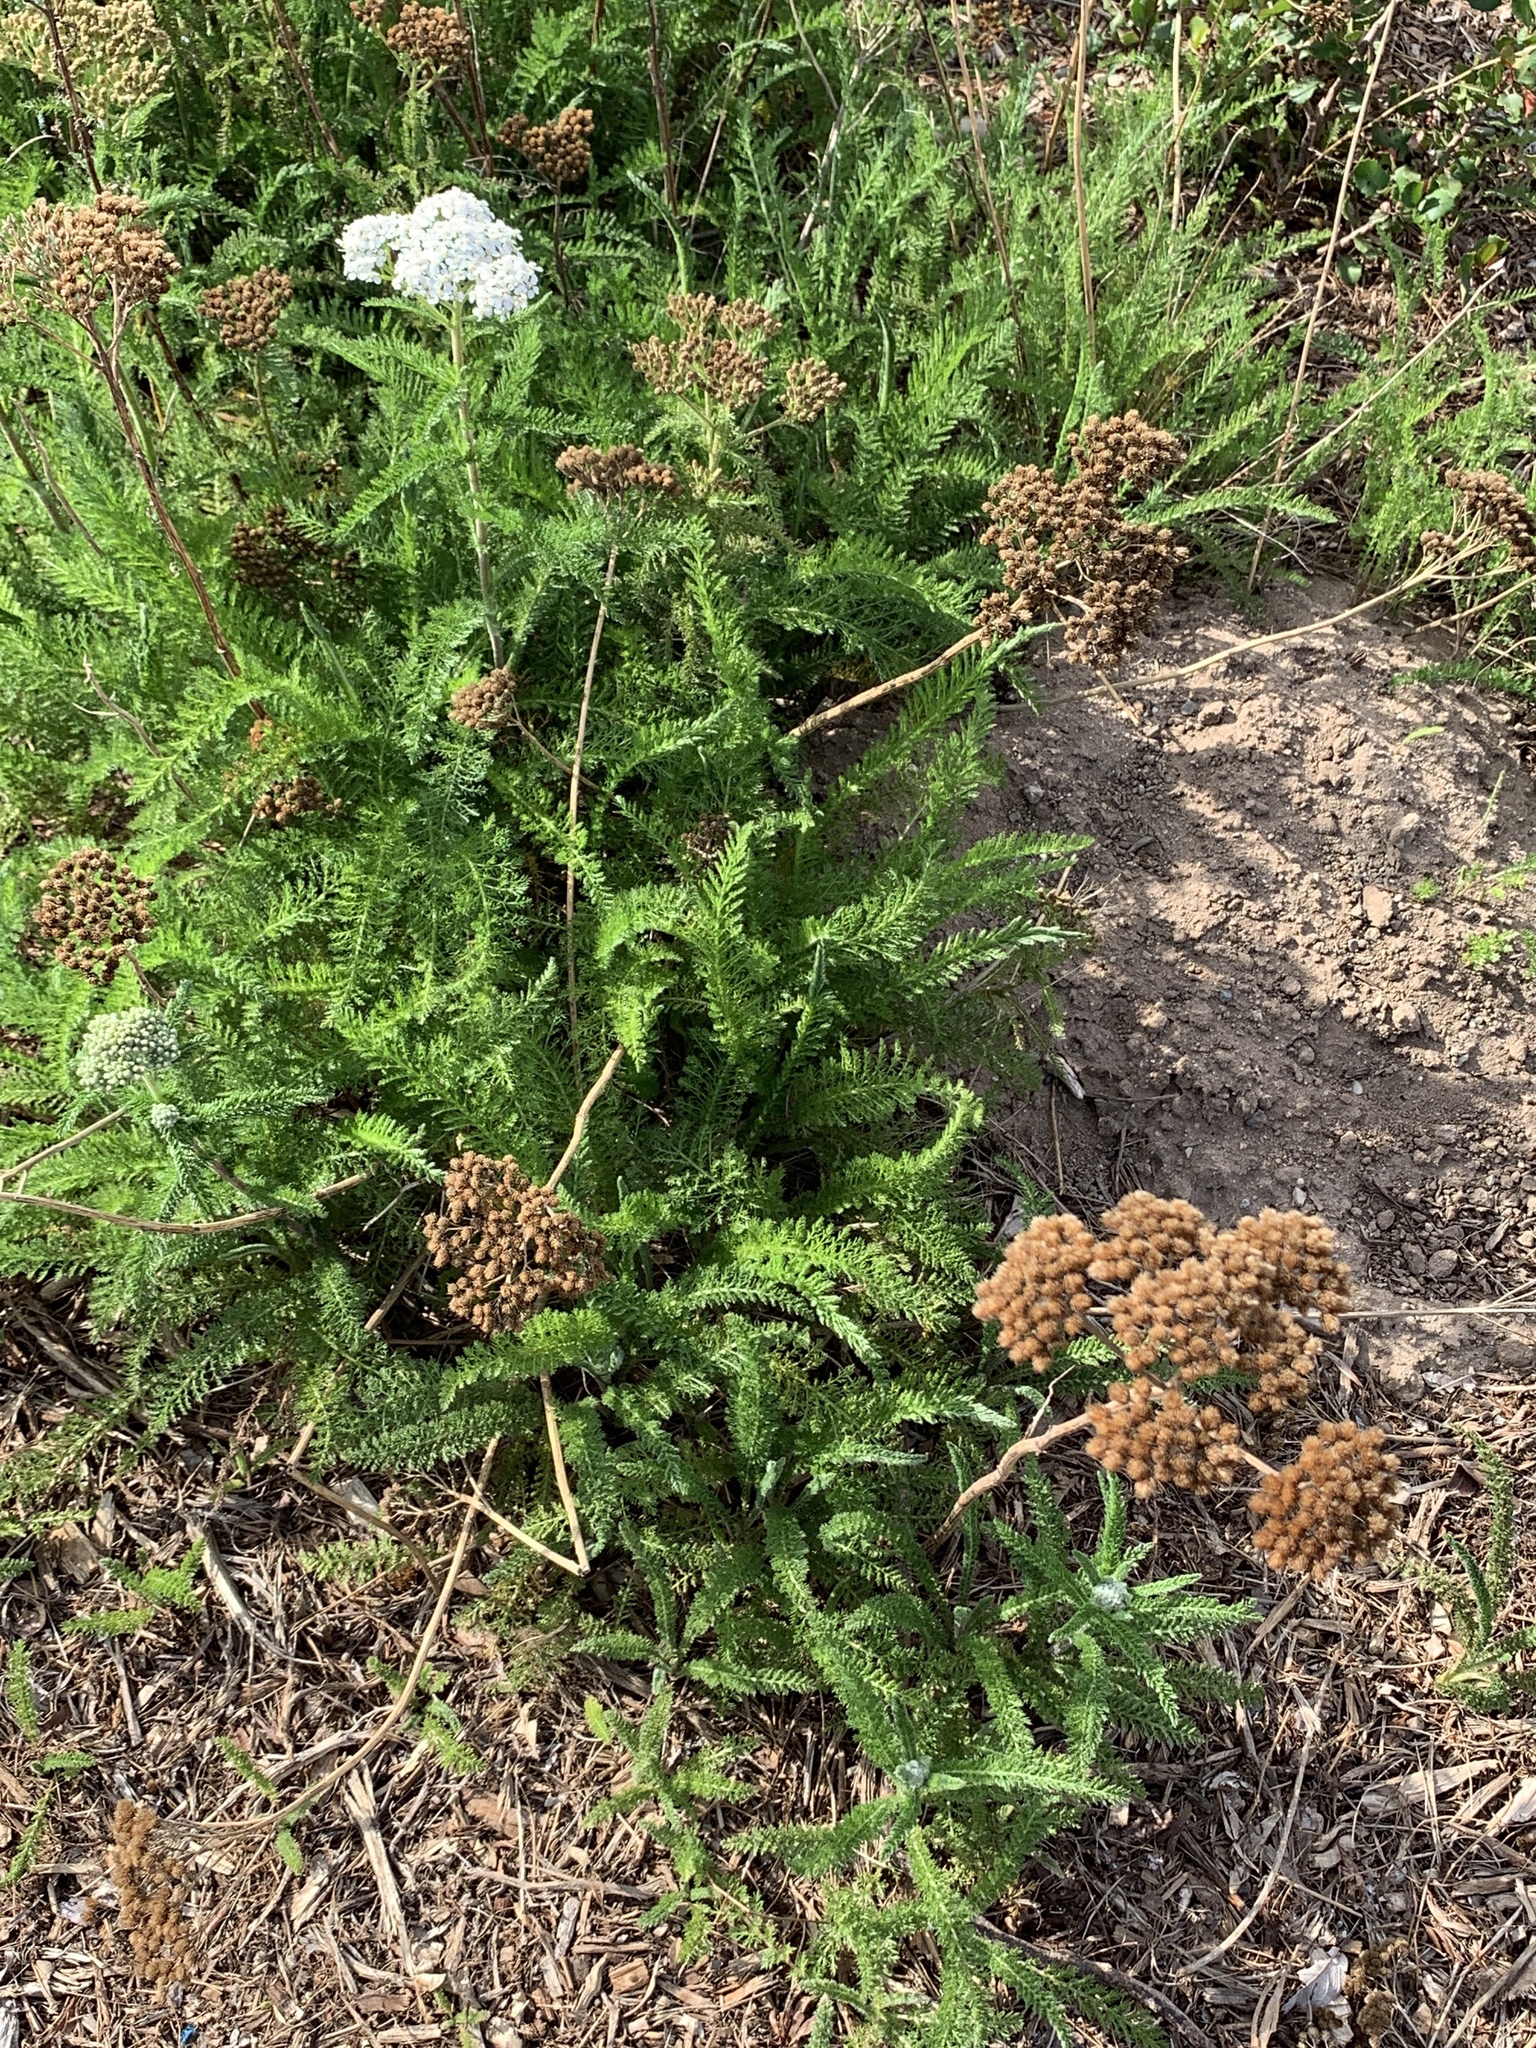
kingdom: Plantae
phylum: Tracheophyta
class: Magnoliopsida
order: Asterales
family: Asteraceae
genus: Achillea
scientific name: Achillea millefolium
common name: Yarrow
